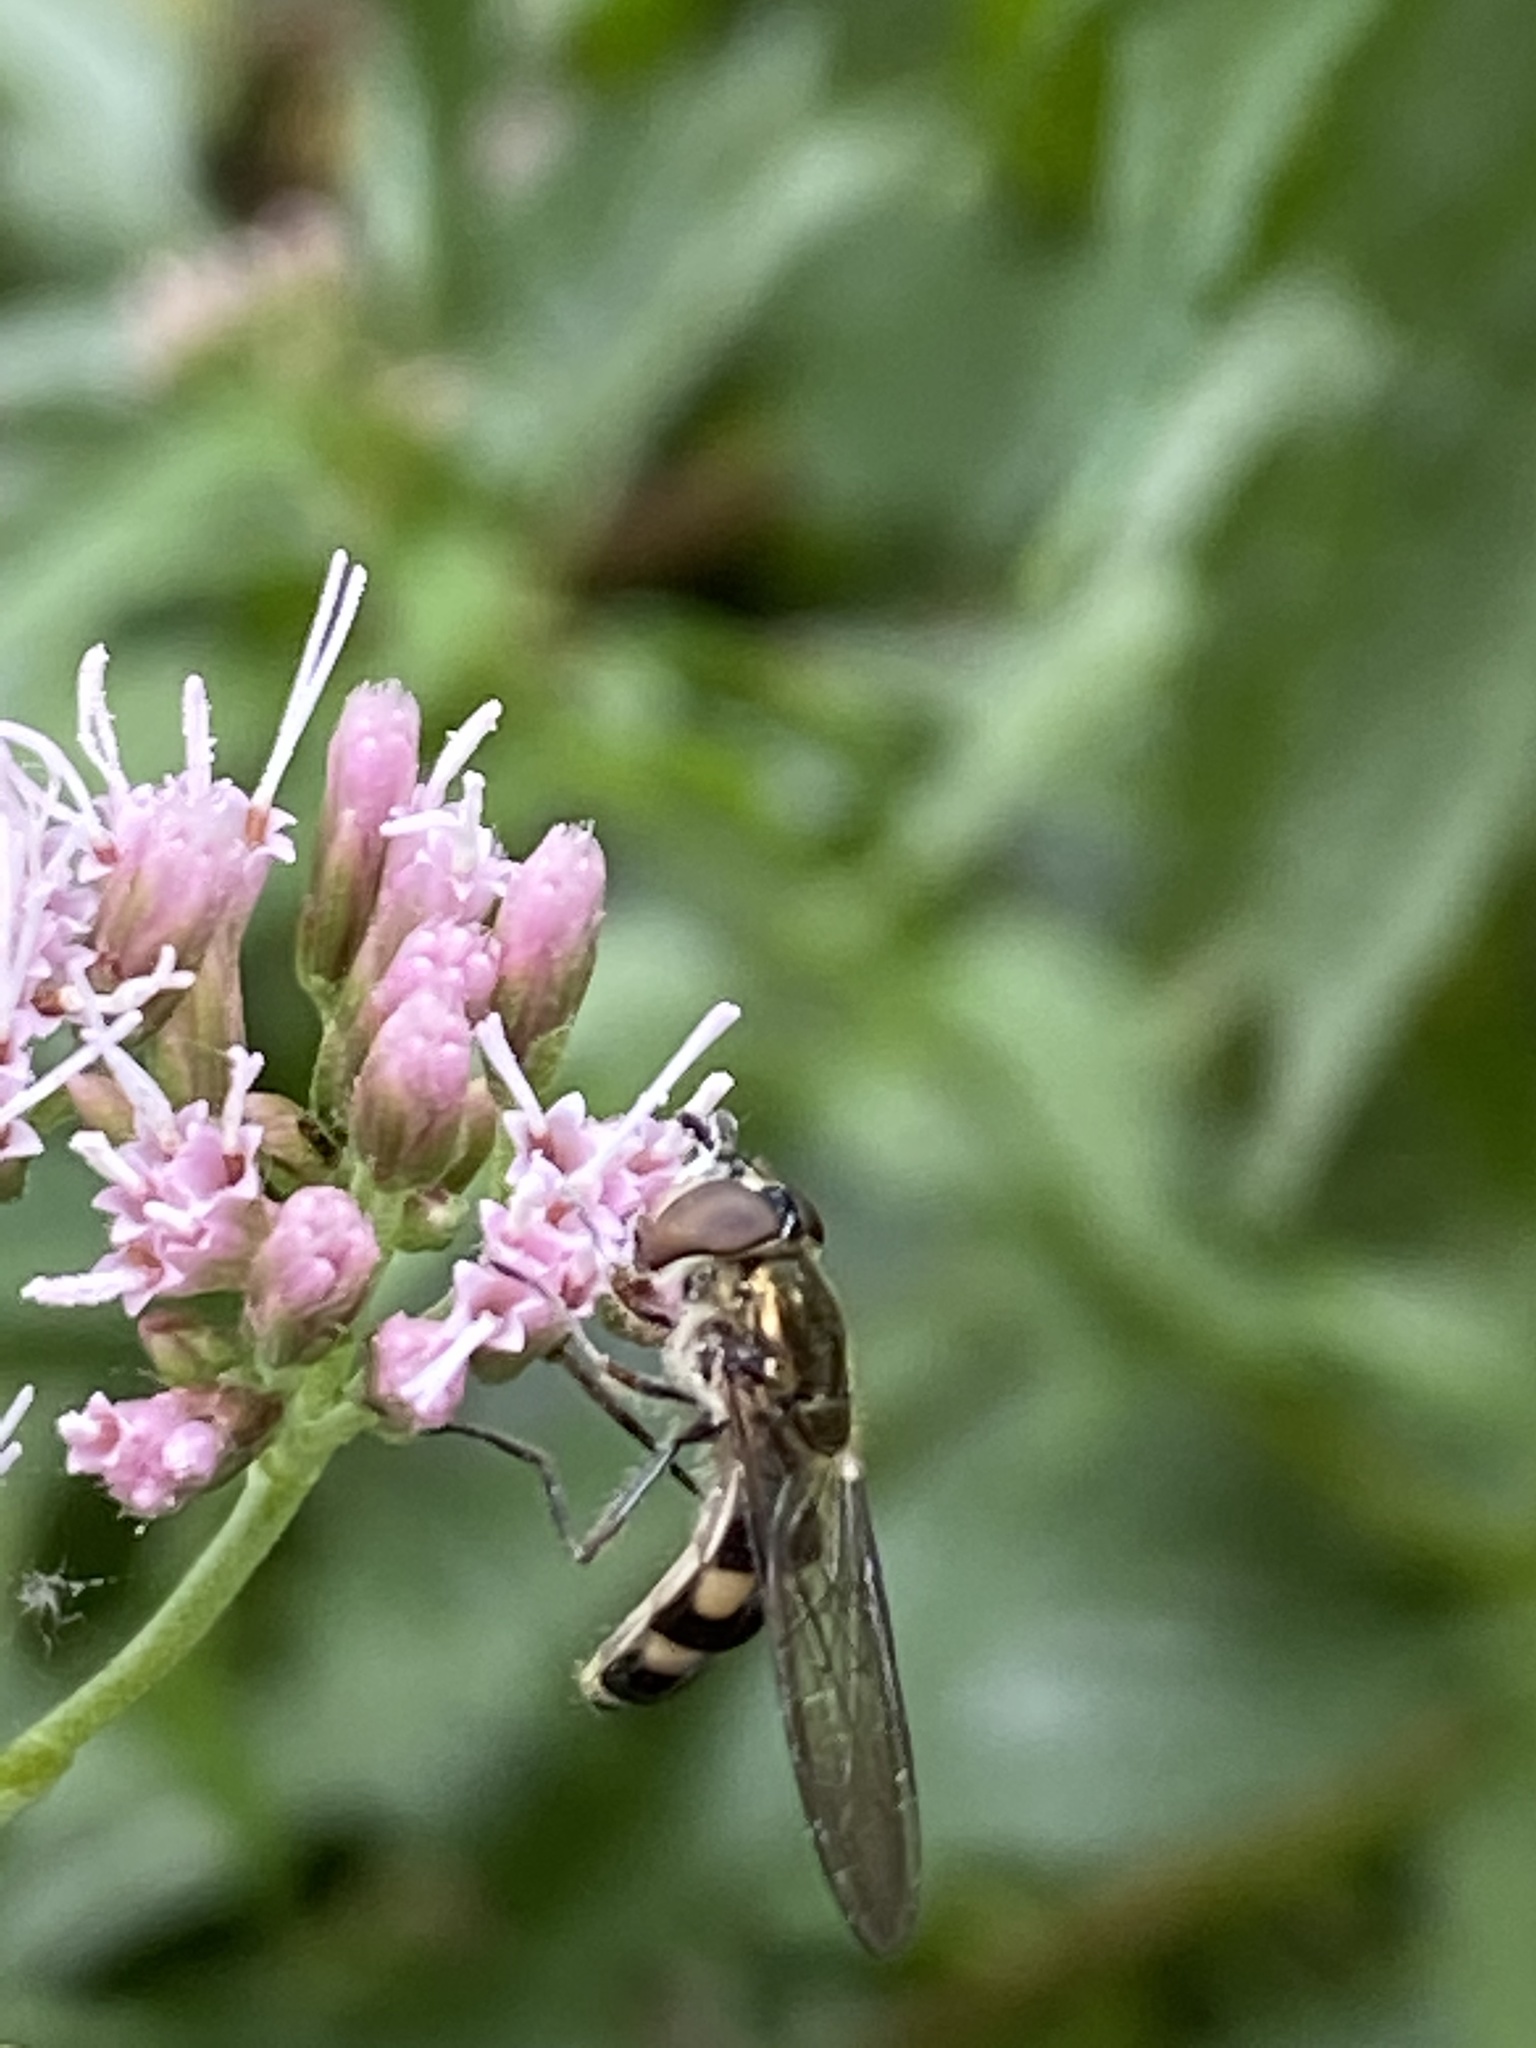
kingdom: Animalia
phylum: Arthropoda
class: Insecta
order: Diptera
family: Syrphidae
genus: Xanthandrus
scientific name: Xanthandrus comtus
